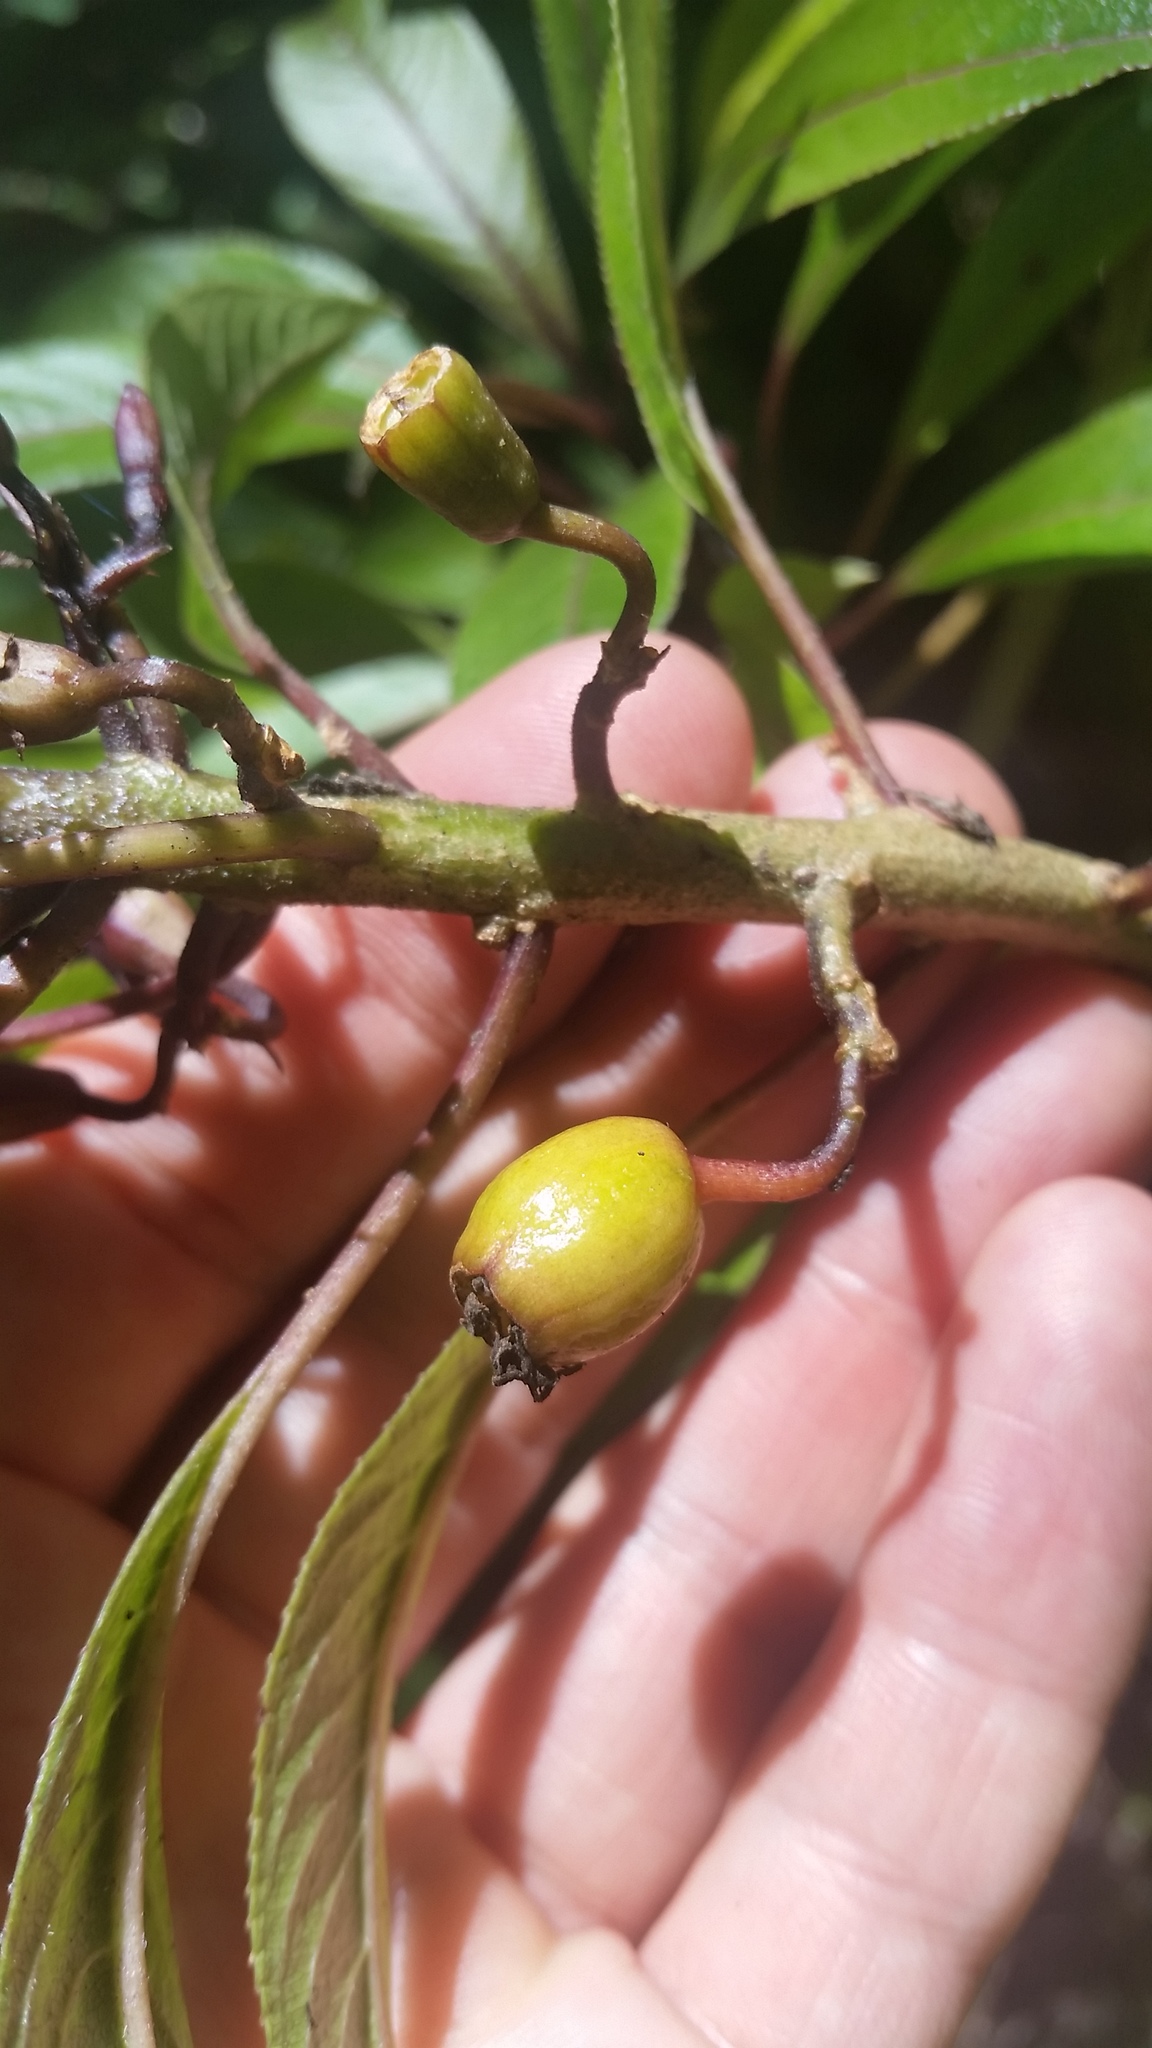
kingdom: Plantae
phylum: Tracheophyta
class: Magnoliopsida
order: Asterales
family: Campanulaceae
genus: Clermontia
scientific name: Clermontia parviflora
